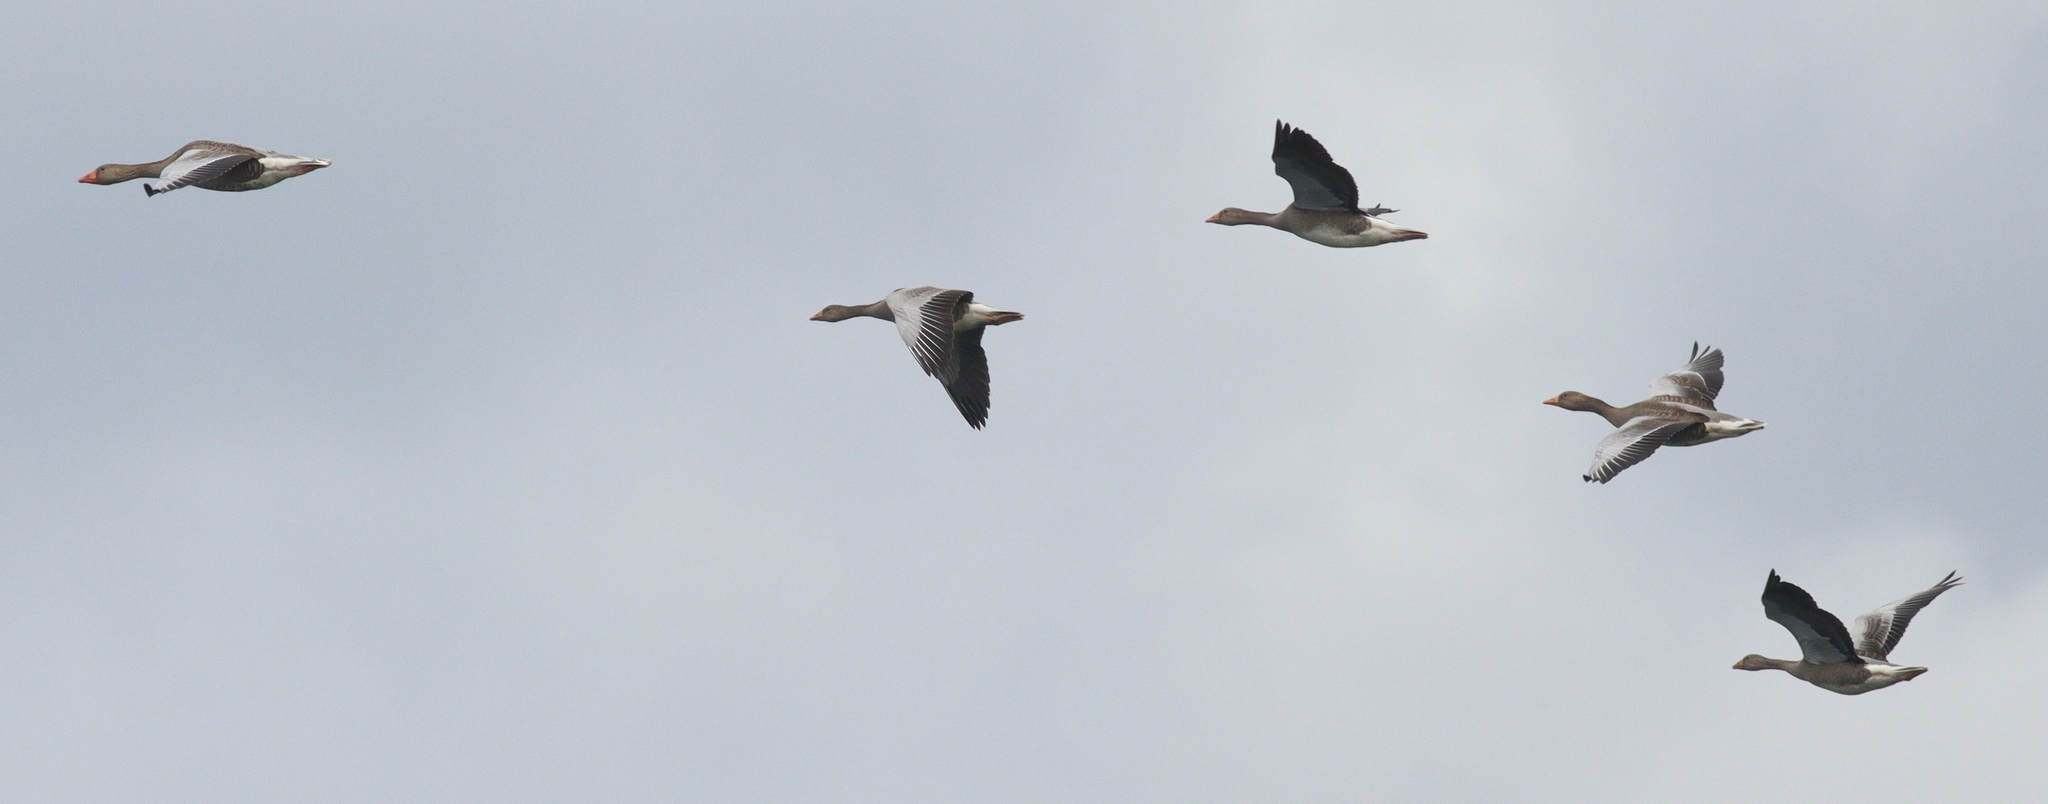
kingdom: Animalia
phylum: Chordata
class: Aves
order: Anseriformes
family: Anatidae
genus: Anser
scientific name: Anser anser
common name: Greylag goose
